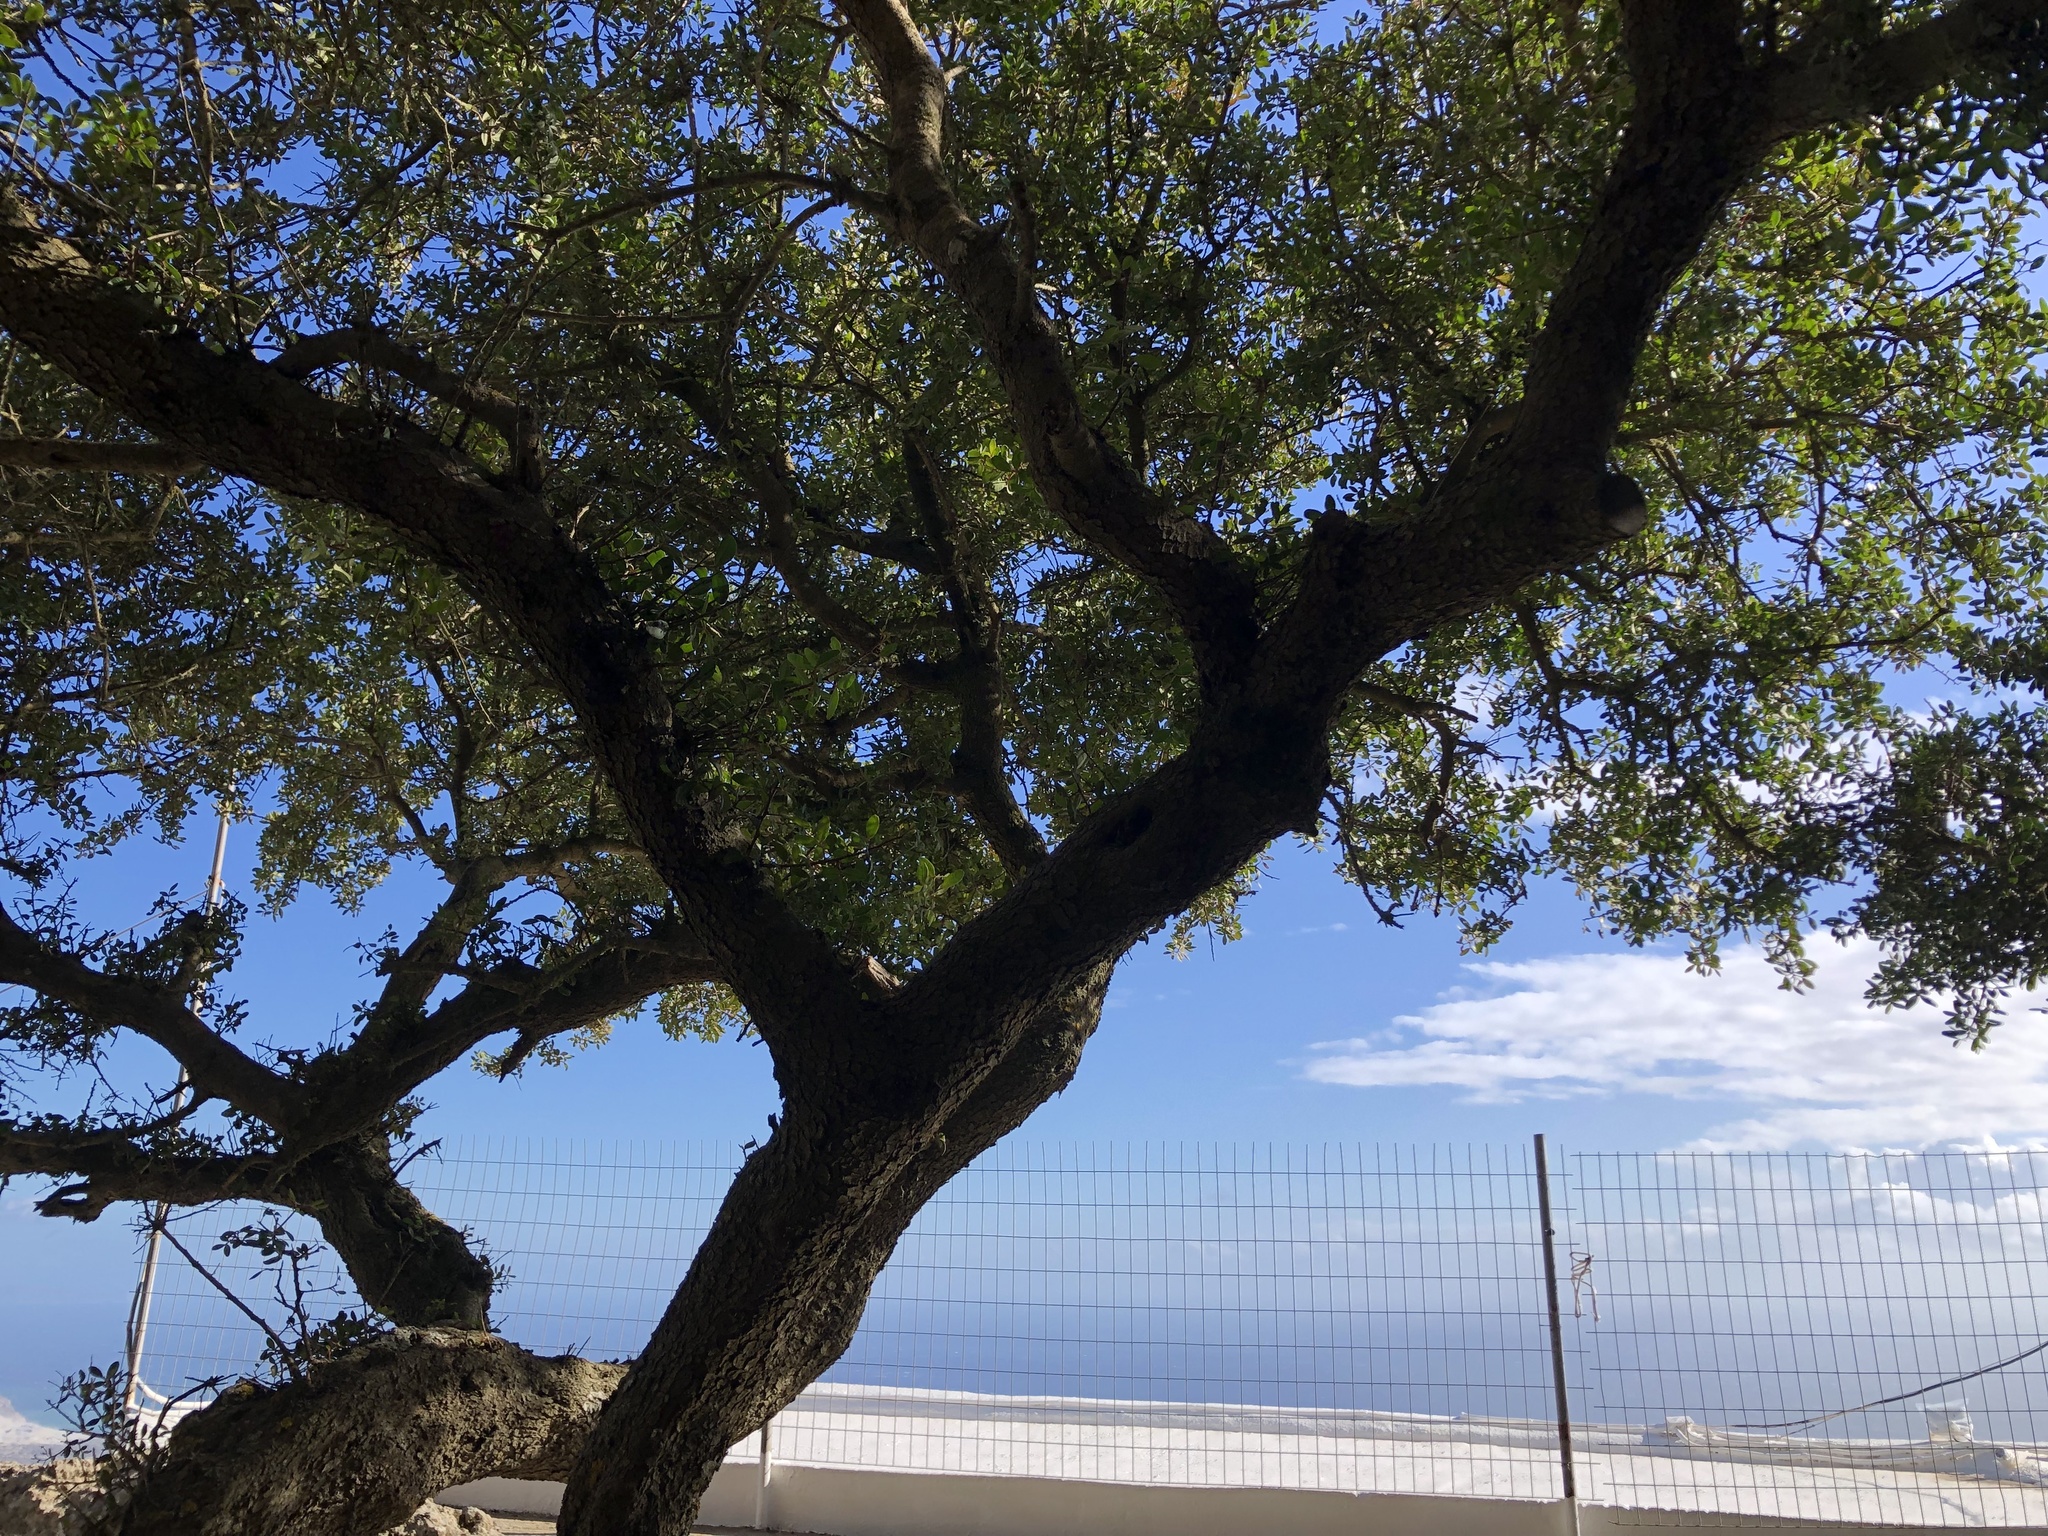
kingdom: Plantae
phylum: Tracheophyta
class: Magnoliopsida
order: Sapindales
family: Anacardiaceae
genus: Pistacia
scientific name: Pistacia lentiscus
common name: Lentisk
